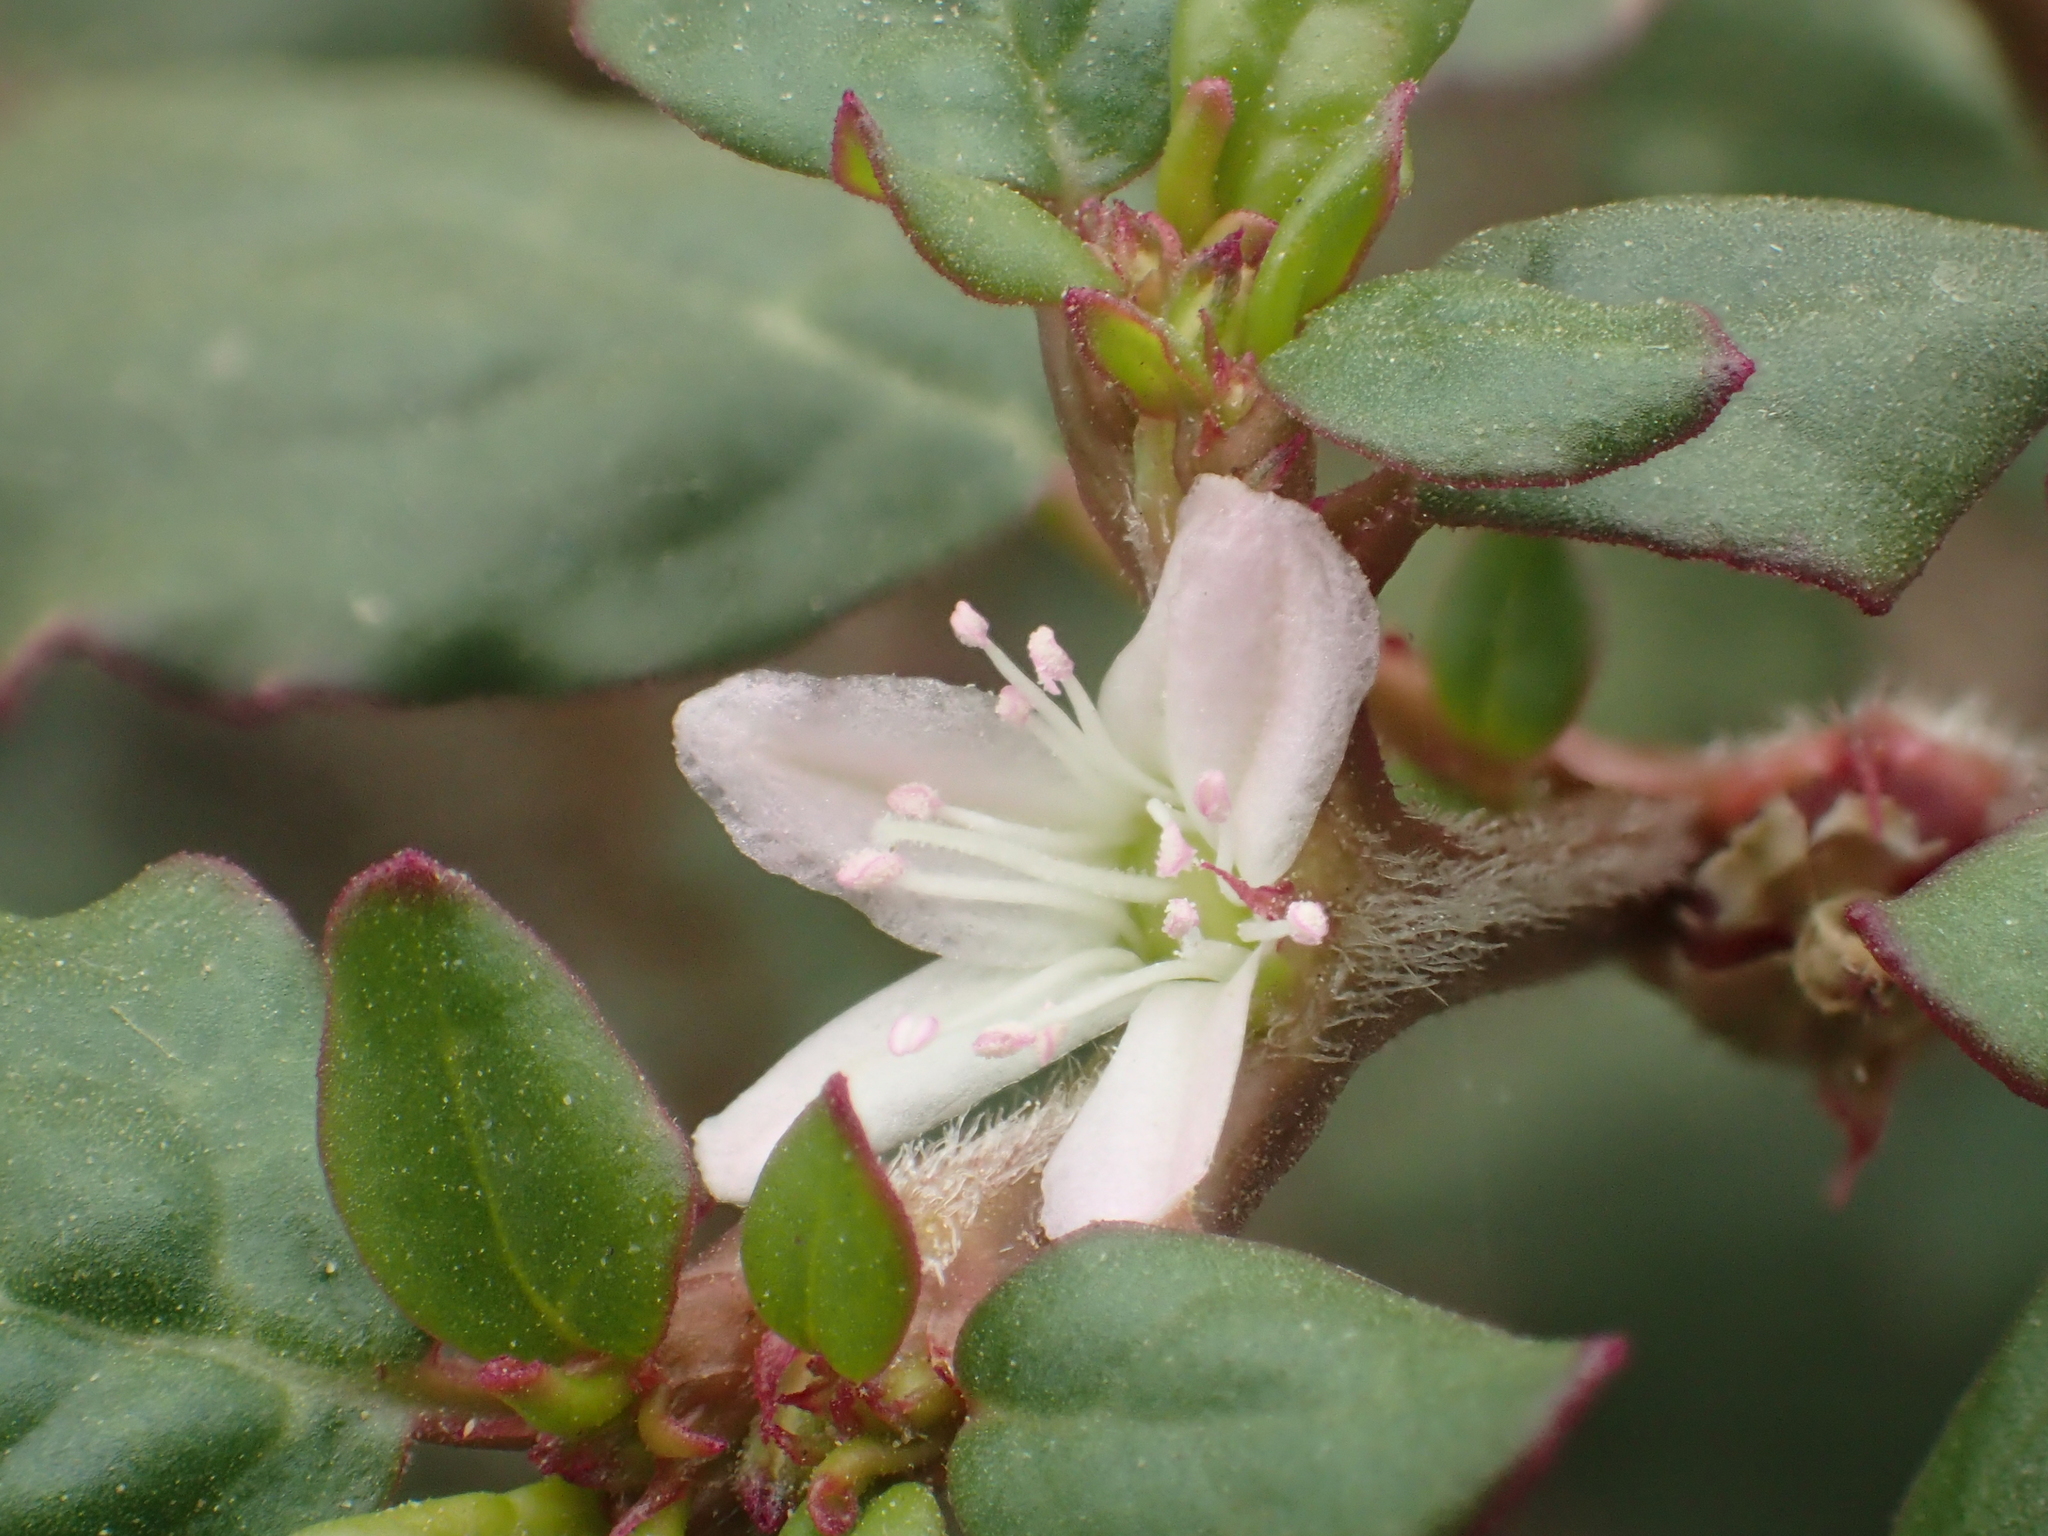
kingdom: Plantae
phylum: Tracheophyta
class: Magnoliopsida
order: Caryophyllales
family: Aizoaceae
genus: Trianthema
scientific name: Trianthema portulacastrum
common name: Desert horsepurslane
